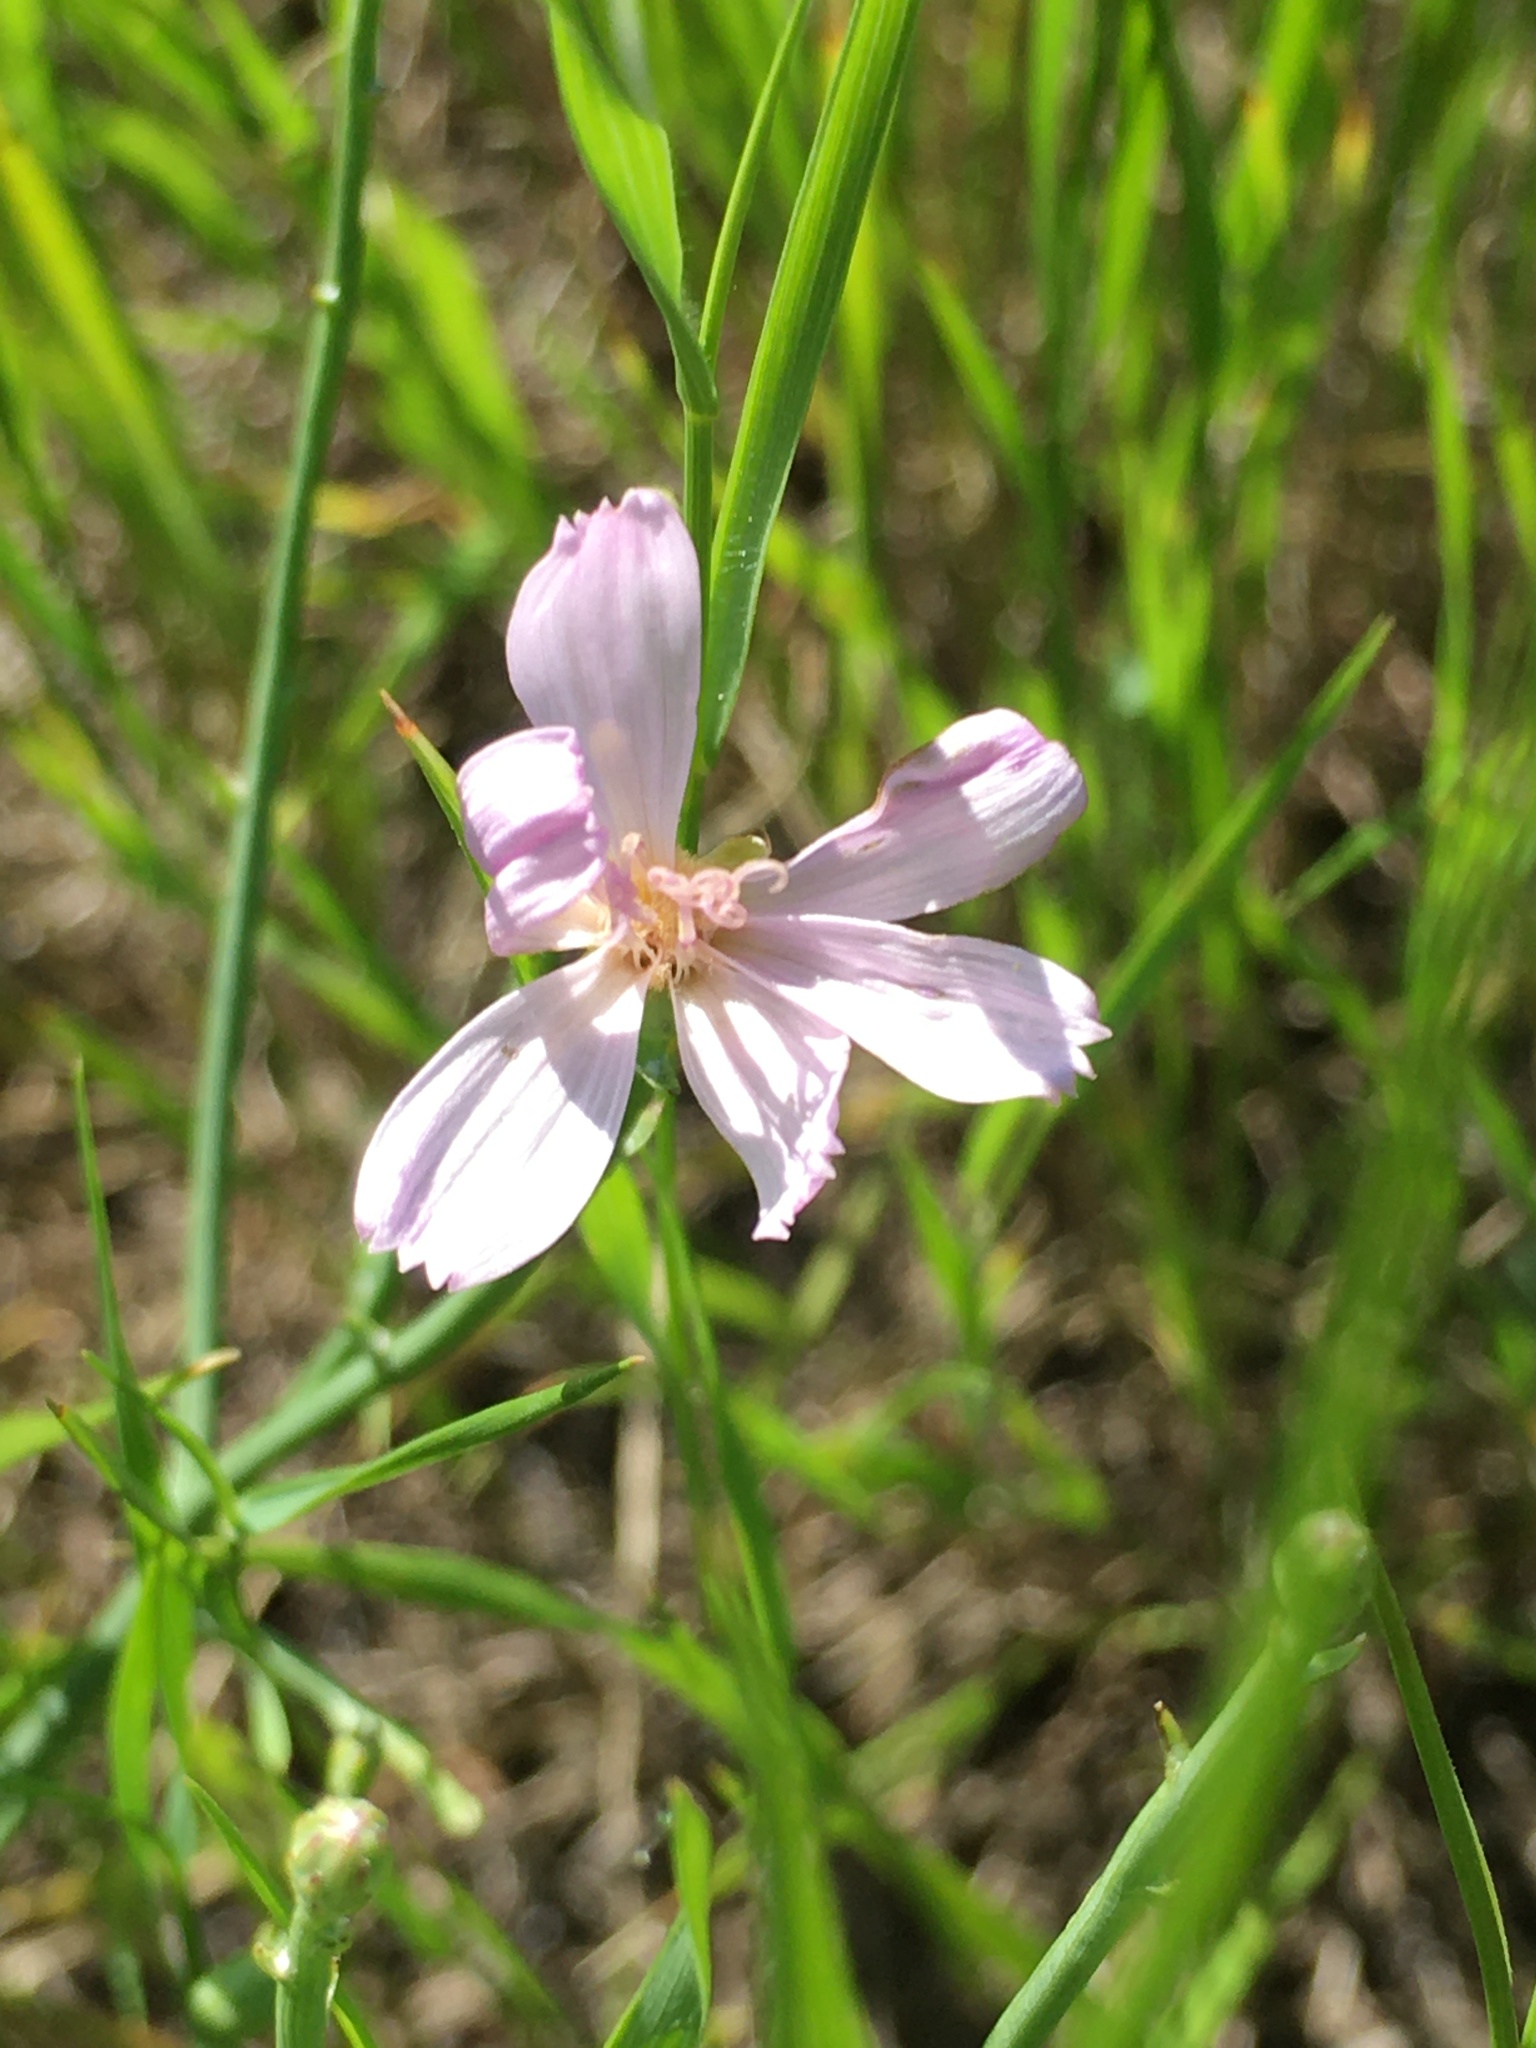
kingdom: Plantae
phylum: Tracheophyta
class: Magnoliopsida
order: Asterales
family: Asteraceae
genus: Lygodesmia
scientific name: Lygodesmia juncea
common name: Common skeletonweed
